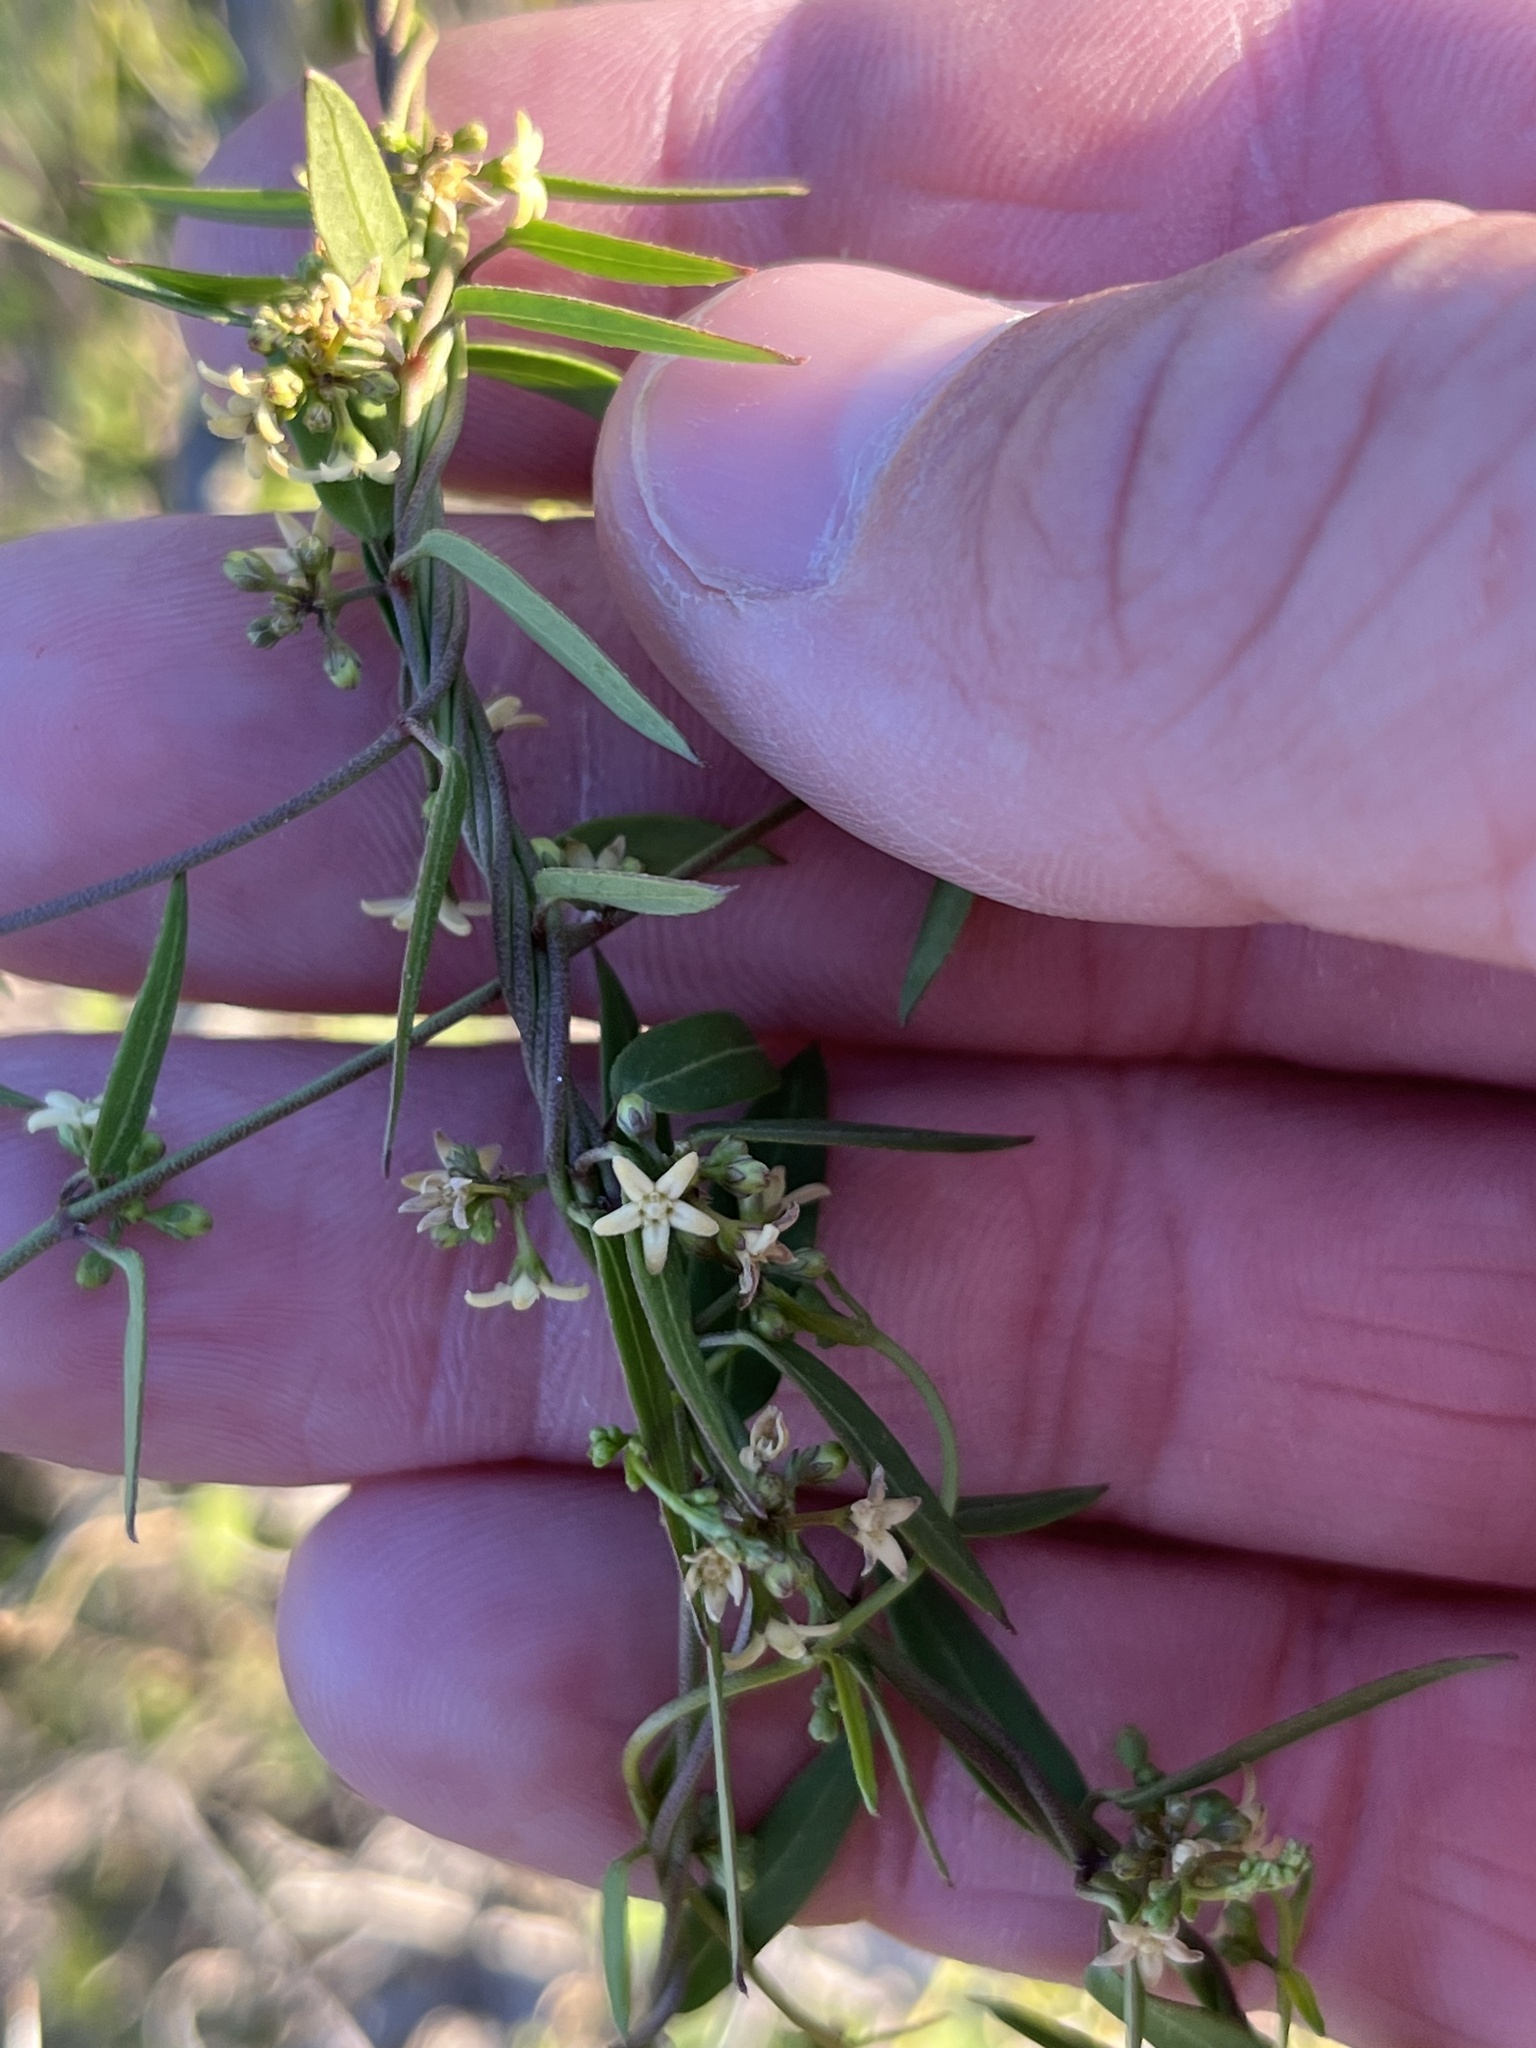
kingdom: Plantae
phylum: Tracheophyta
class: Magnoliopsida
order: Gentianales
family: Apocynaceae
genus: Metastelma
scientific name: Metastelma palmeri
